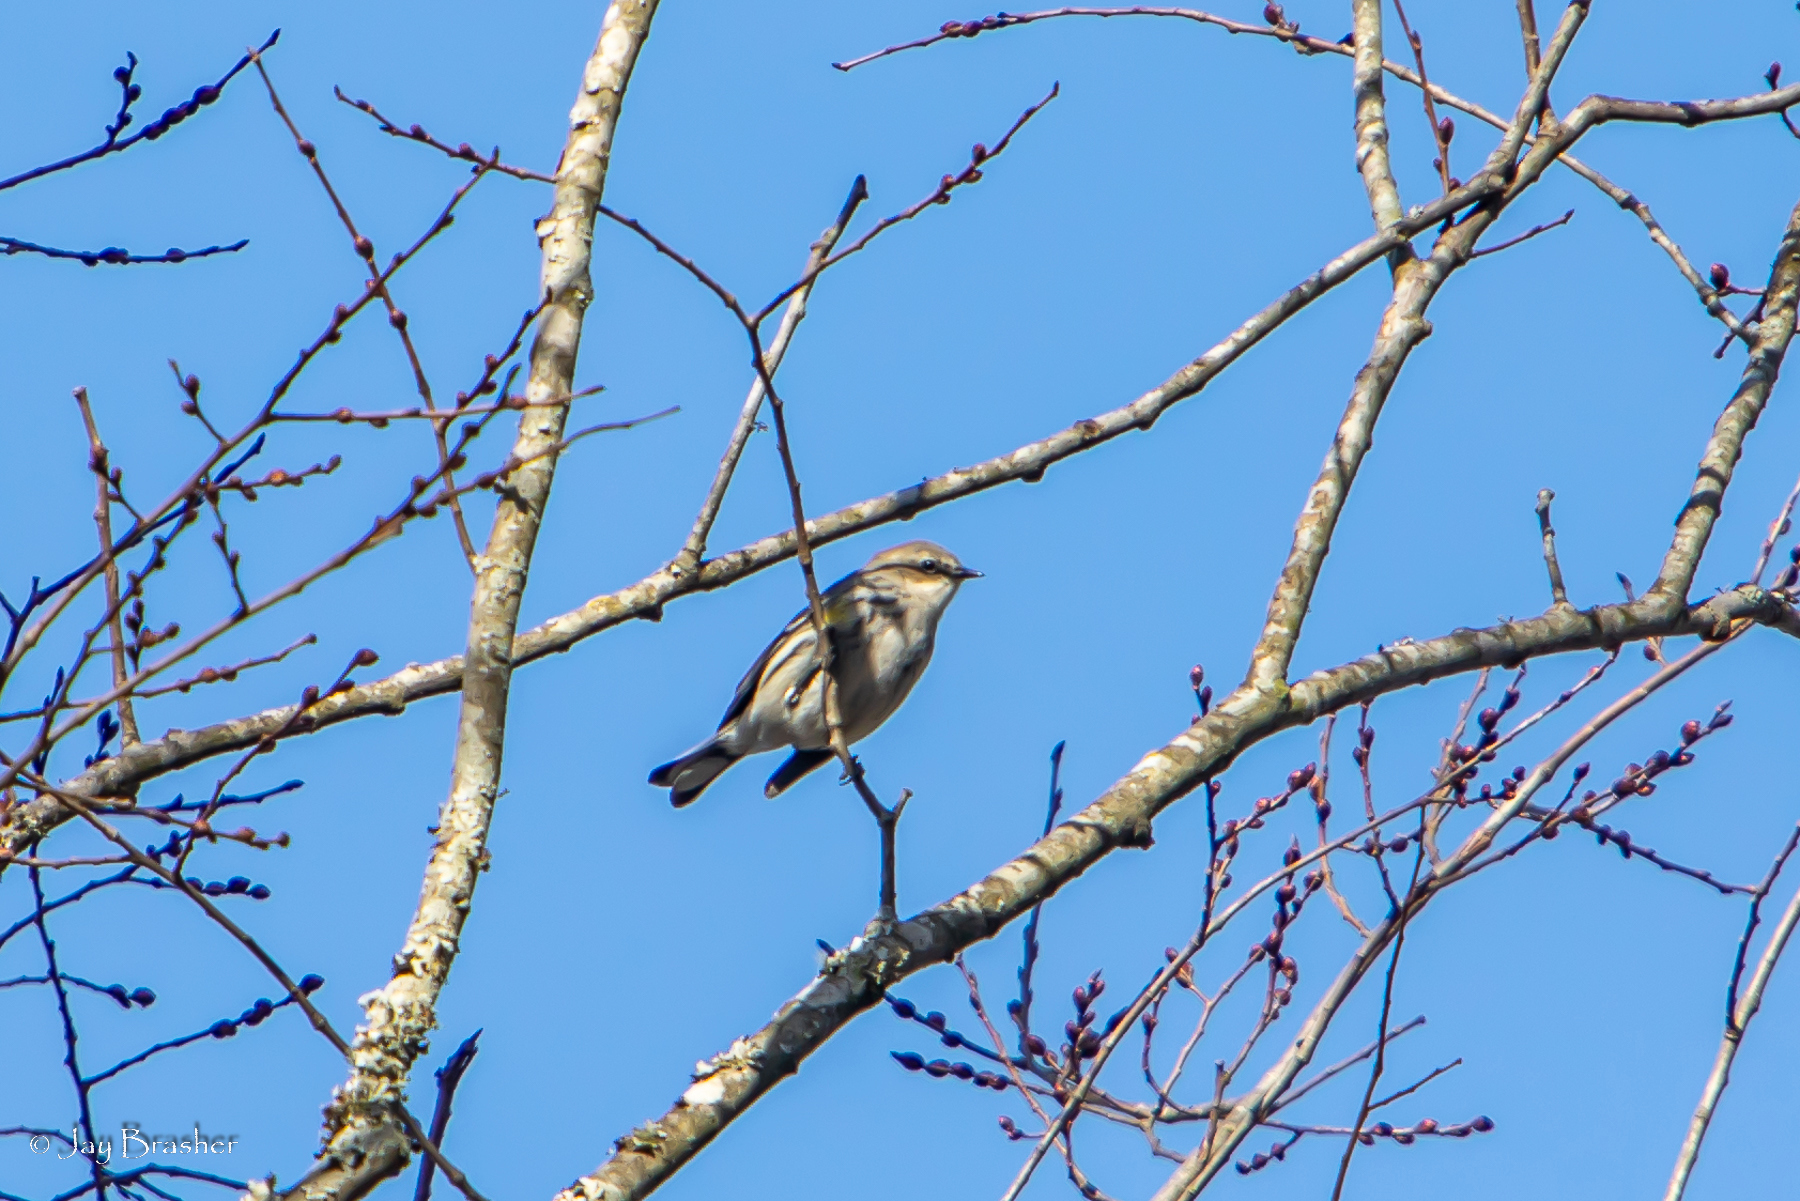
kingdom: Animalia
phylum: Chordata
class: Aves
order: Passeriformes
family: Parulidae
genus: Setophaga
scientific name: Setophaga coronata
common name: Myrtle warbler
